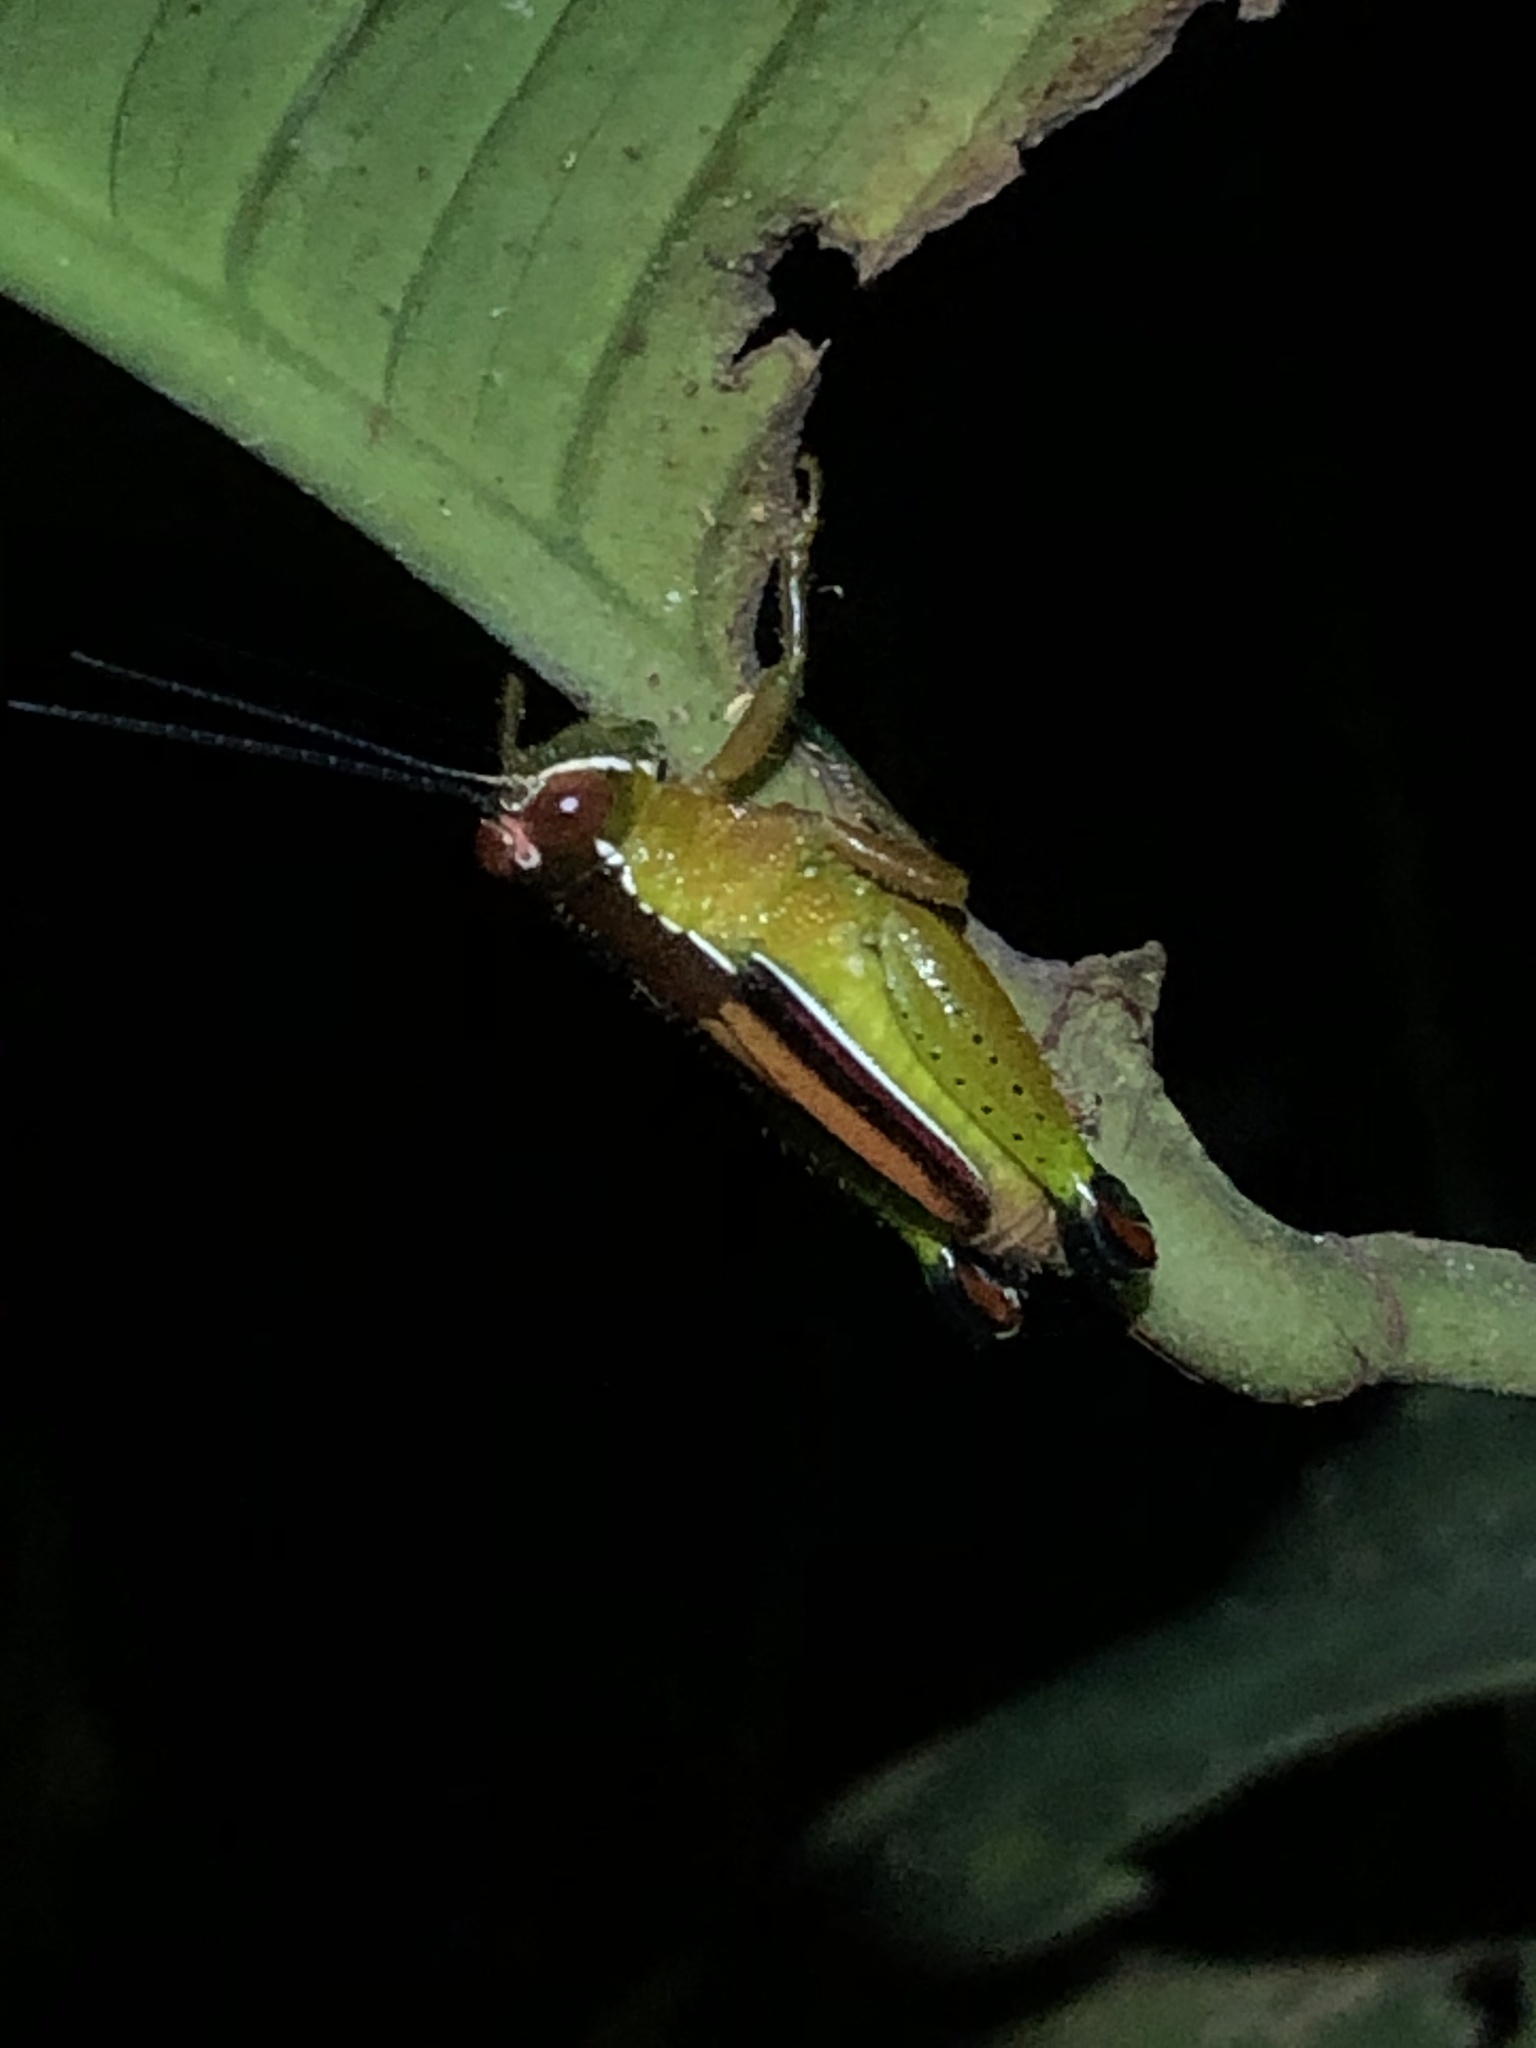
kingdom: Animalia
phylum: Arthropoda
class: Insecta
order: Orthoptera
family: Romaleidae
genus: Ophthalmolampis
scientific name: Ophthalmolampis pakitza
